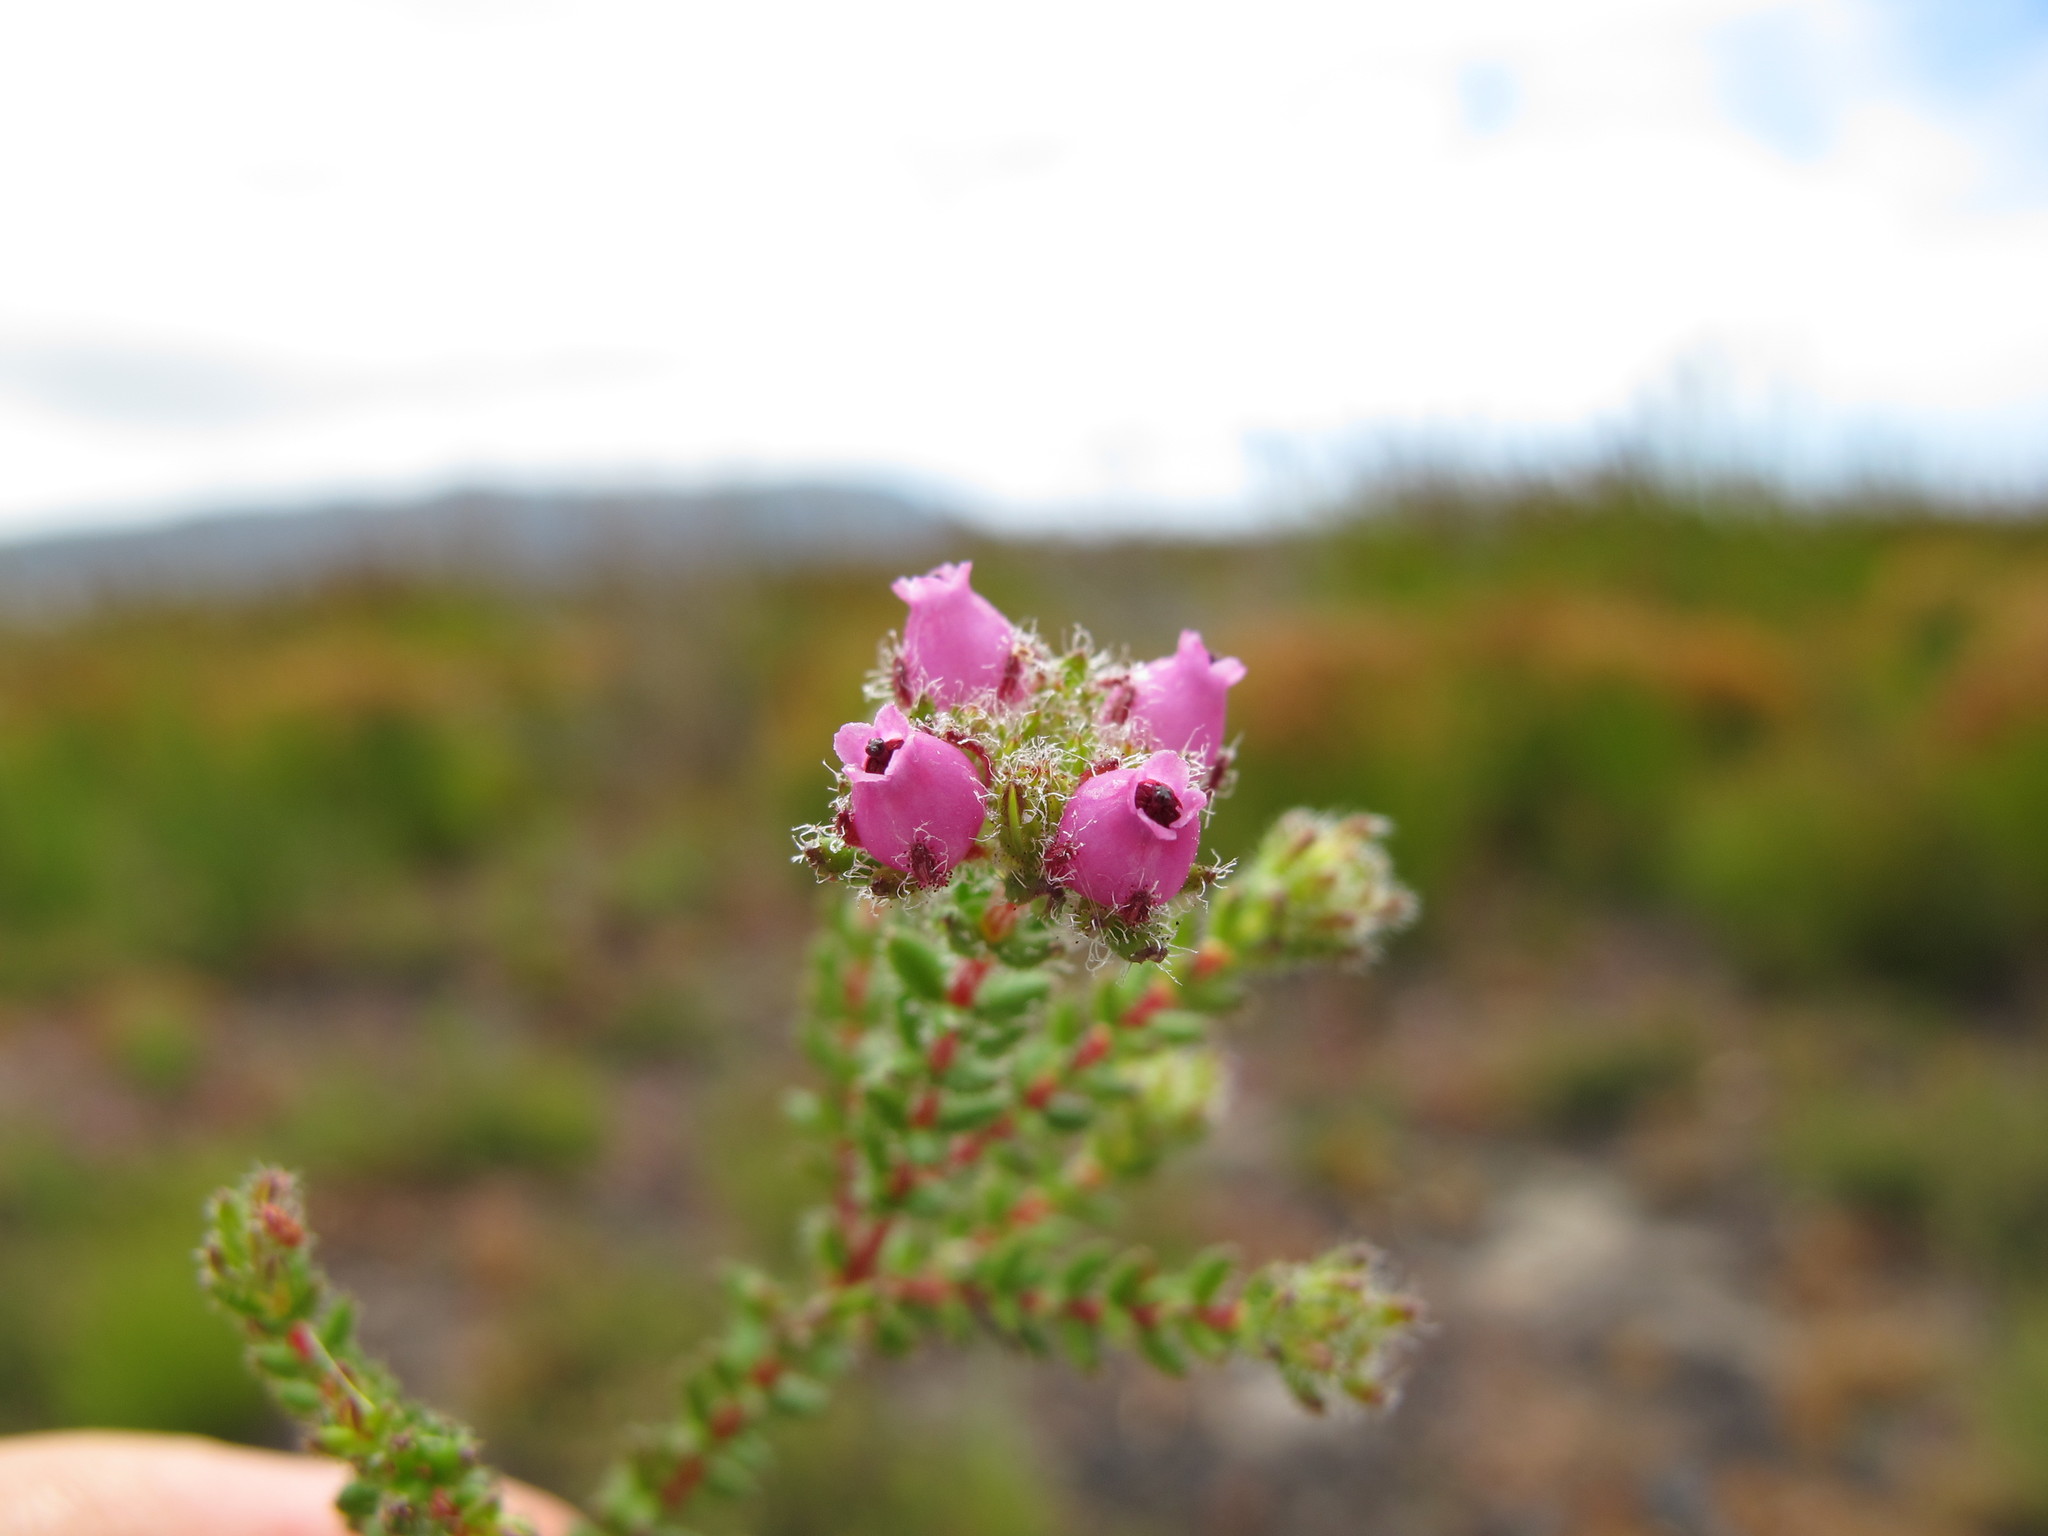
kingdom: Plantae
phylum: Tracheophyta
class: Magnoliopsida
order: Ericales
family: Ericaceae
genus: Erica
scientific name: Erica clavisepala
